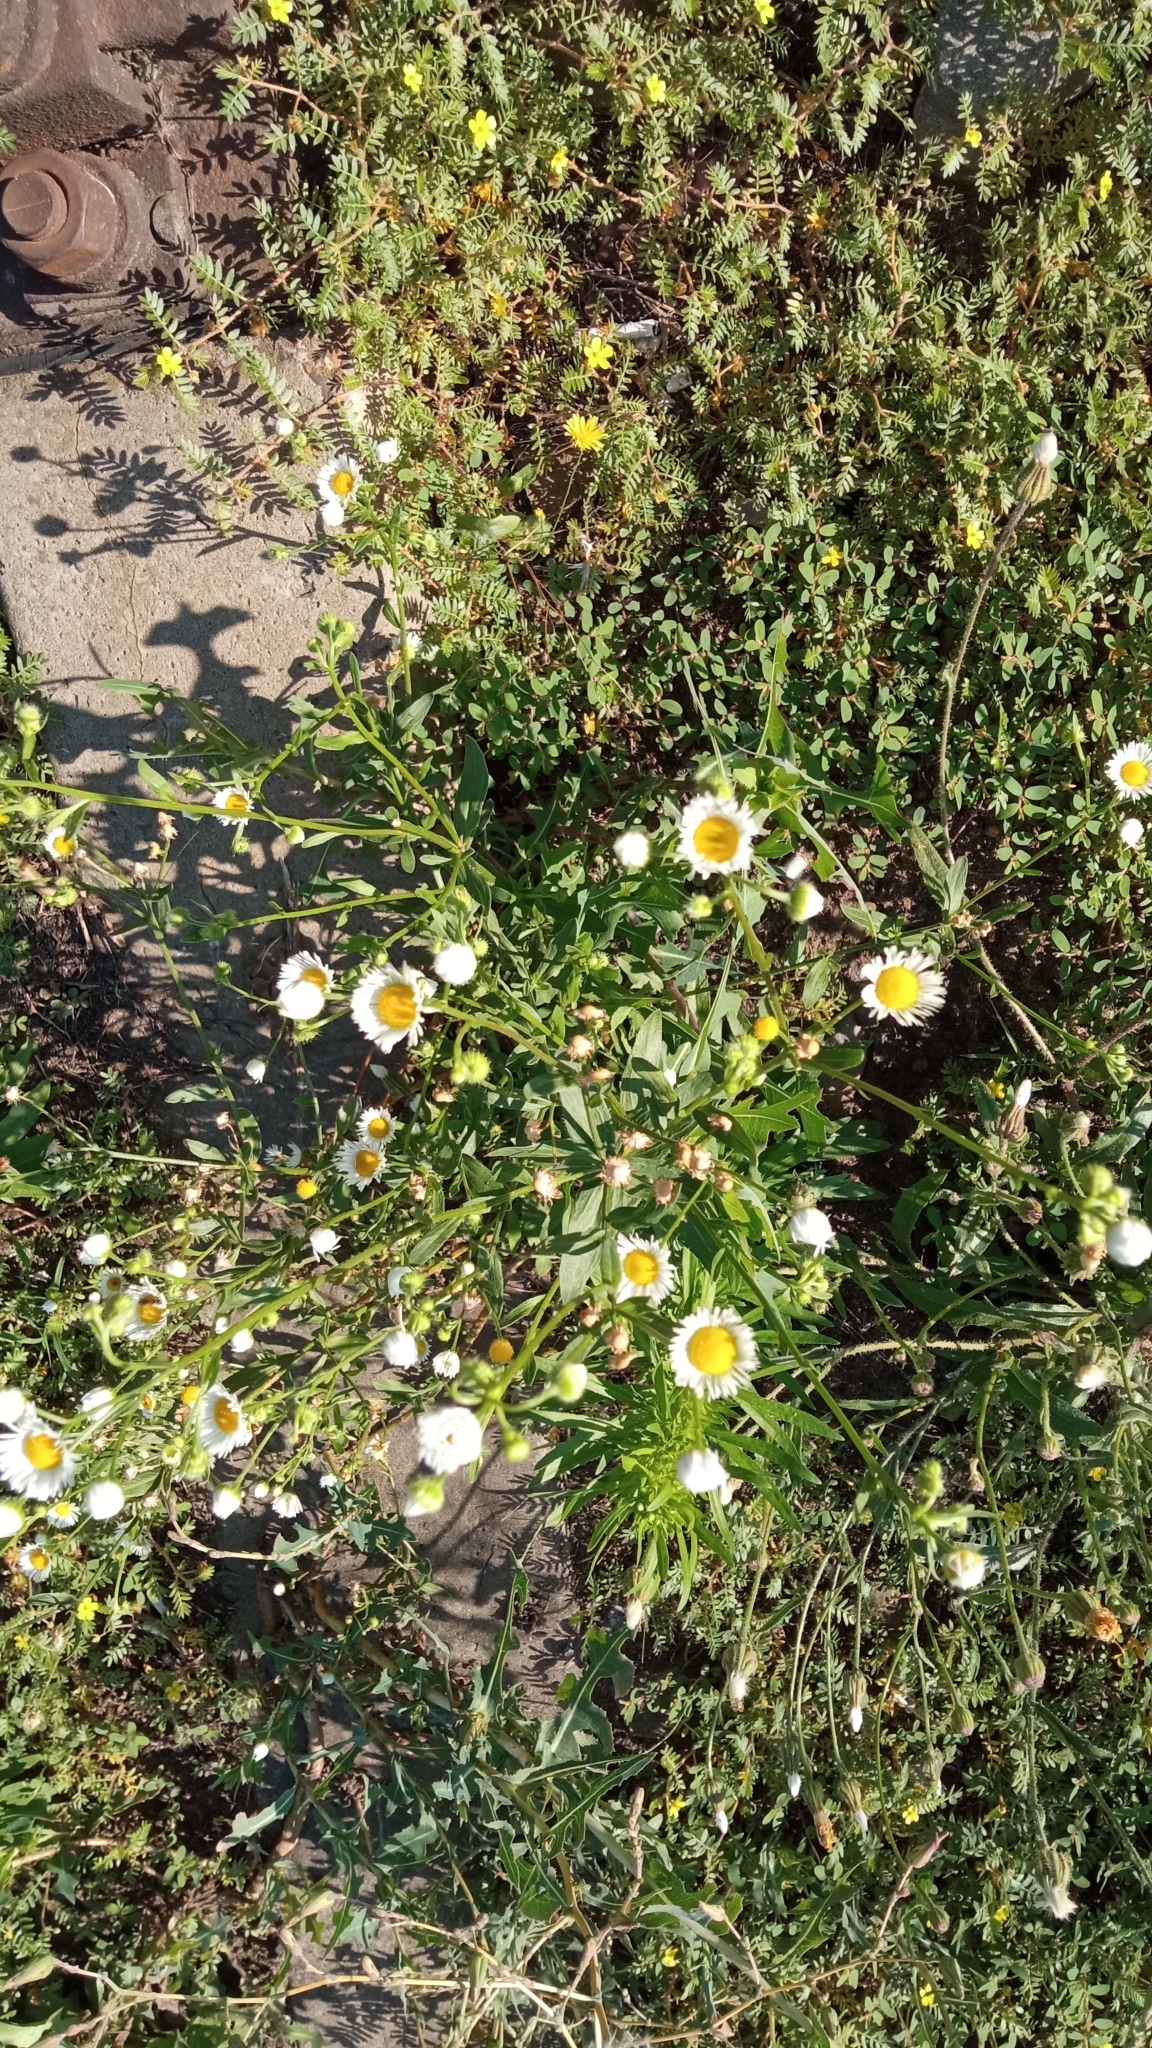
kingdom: Plantae
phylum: Tracheophyta
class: Magnoliopsida
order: Asterales
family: Asteraceae
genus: Erigeron
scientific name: Erigeron annuus
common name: Tall fleabane
